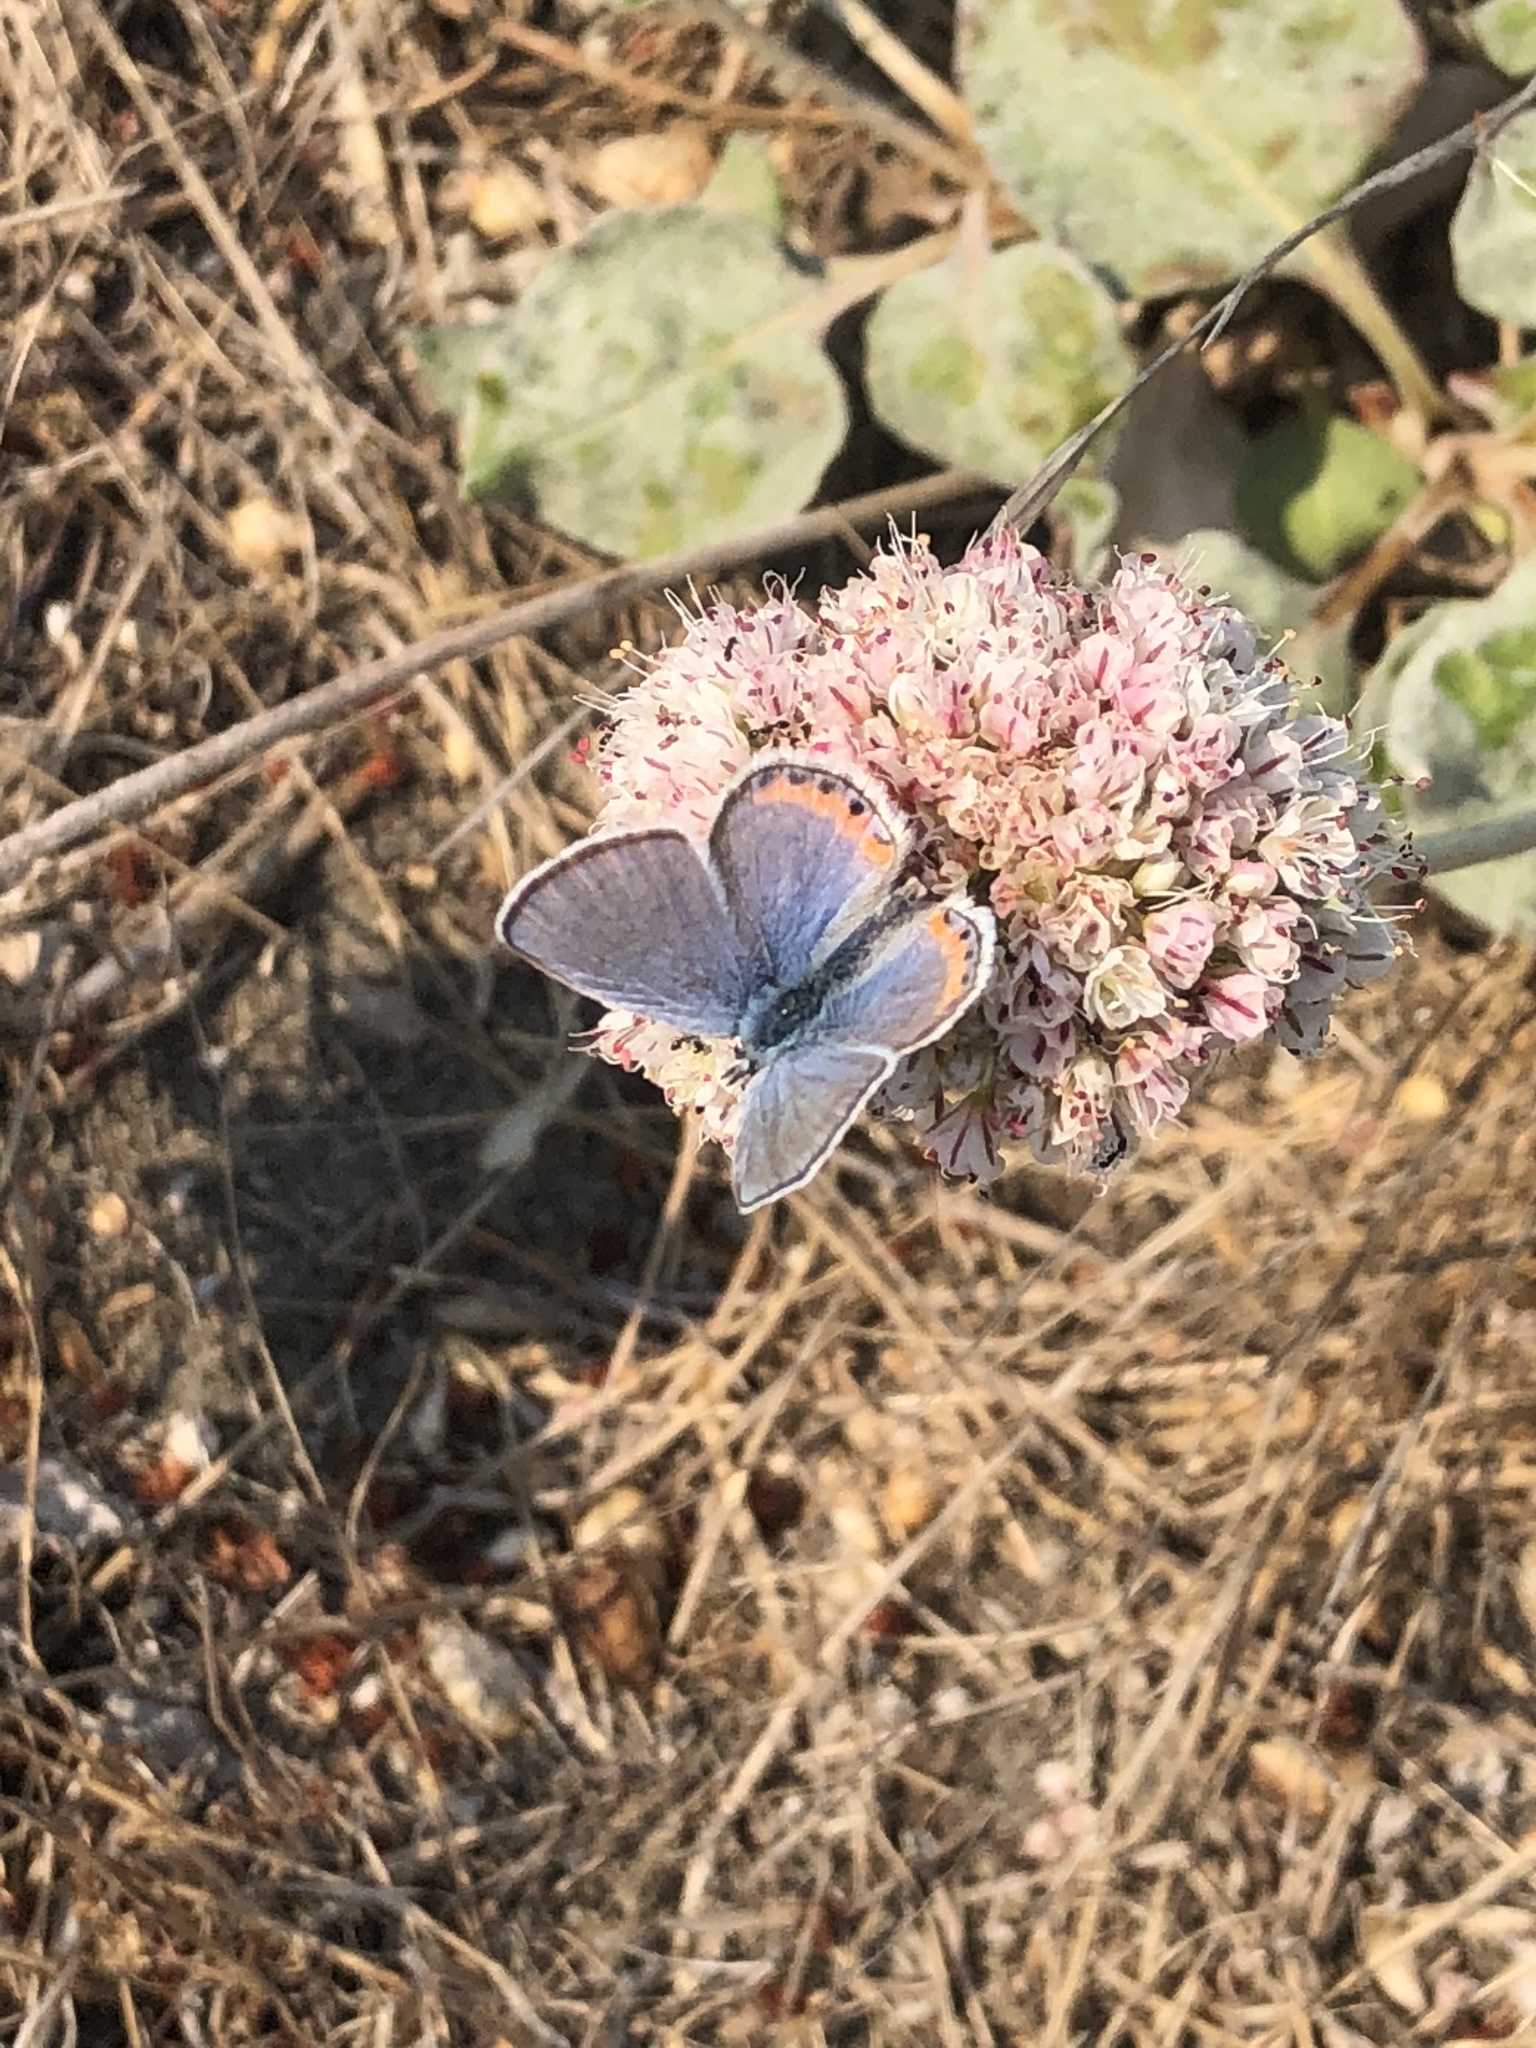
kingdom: Animalia
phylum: Arthropoda
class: Insecta
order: Lepidoptera
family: Lycaenidae
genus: Icaricia
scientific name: Icaricia acmon
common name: Acmon blue
